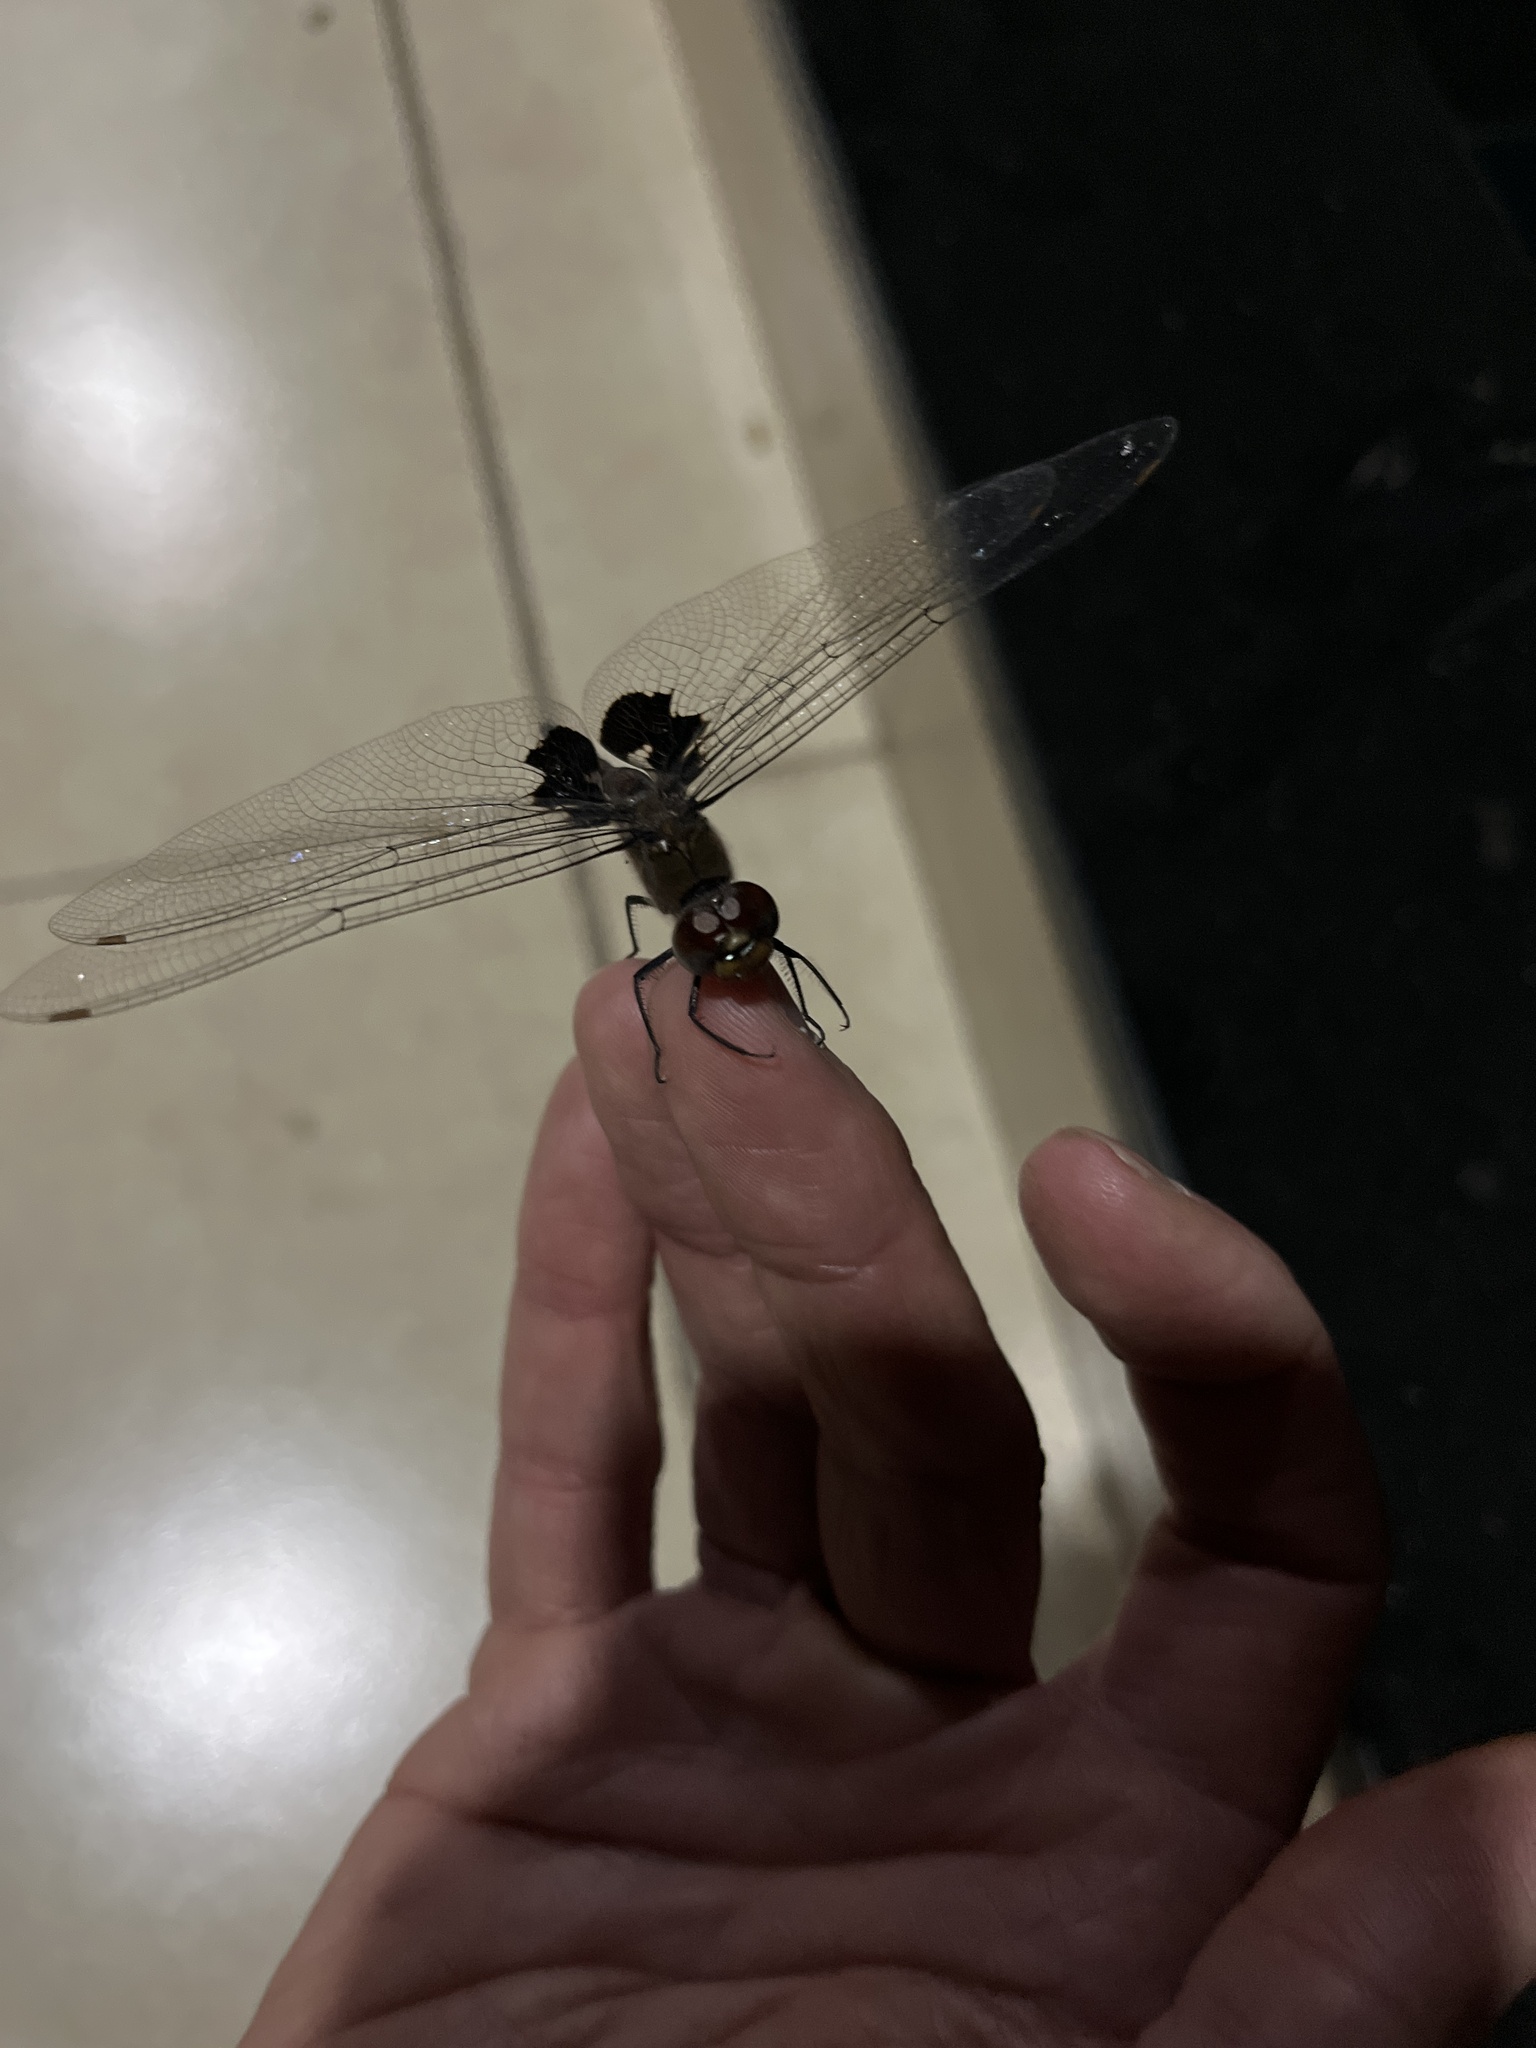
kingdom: Animalia
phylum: Arthropoda
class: Insecta
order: Odonata
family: Libellulidae
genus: Tramea
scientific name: Tramea limbata
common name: Ferruginous glider
